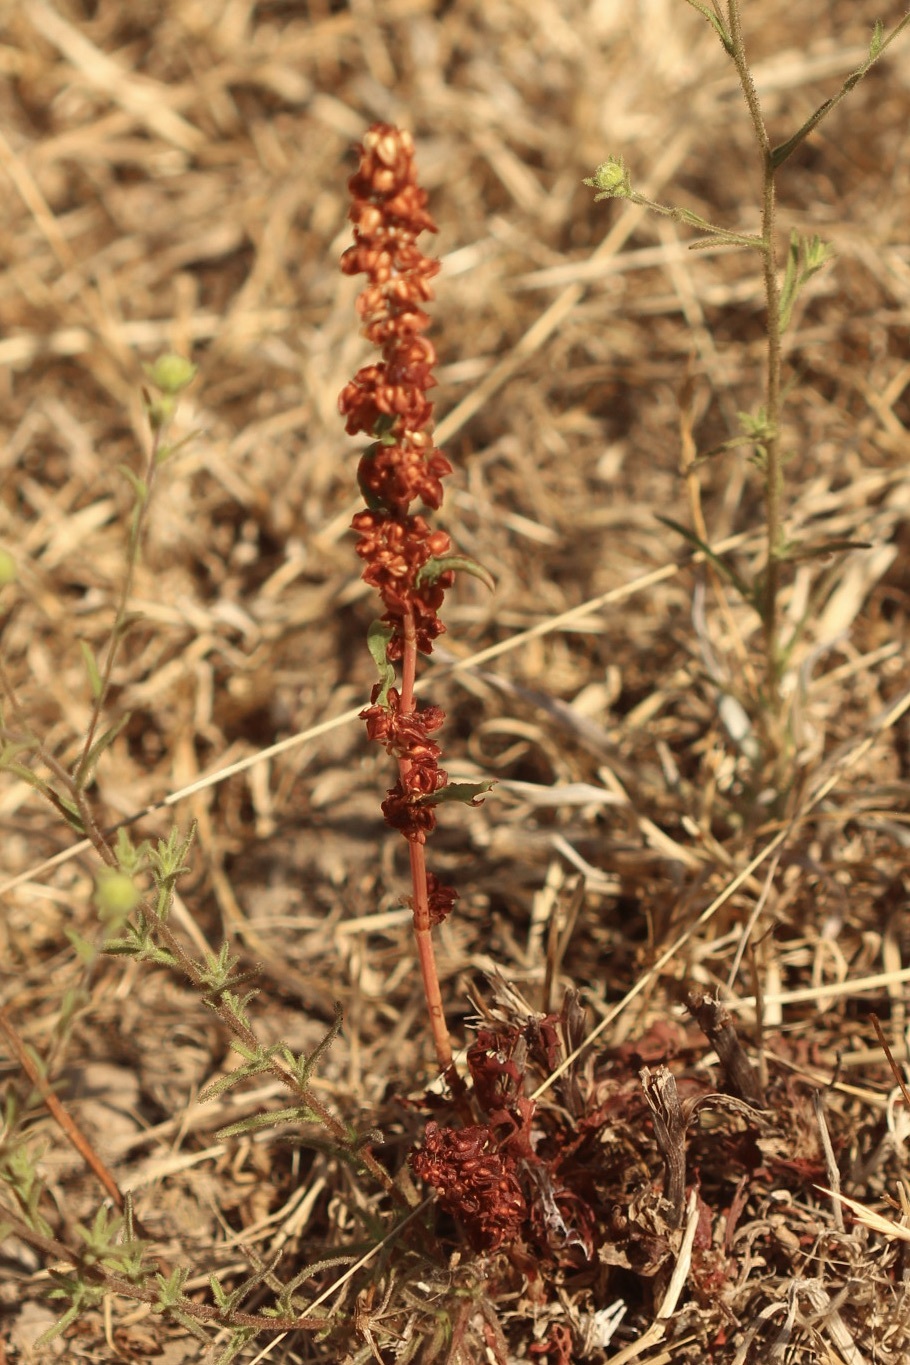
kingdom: Plantae
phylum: Tracheophyta
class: Magnoliopsida
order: Caryophyllales
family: Polygonaceae
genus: Rumex
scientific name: Rumex crispus
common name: Curled dock
